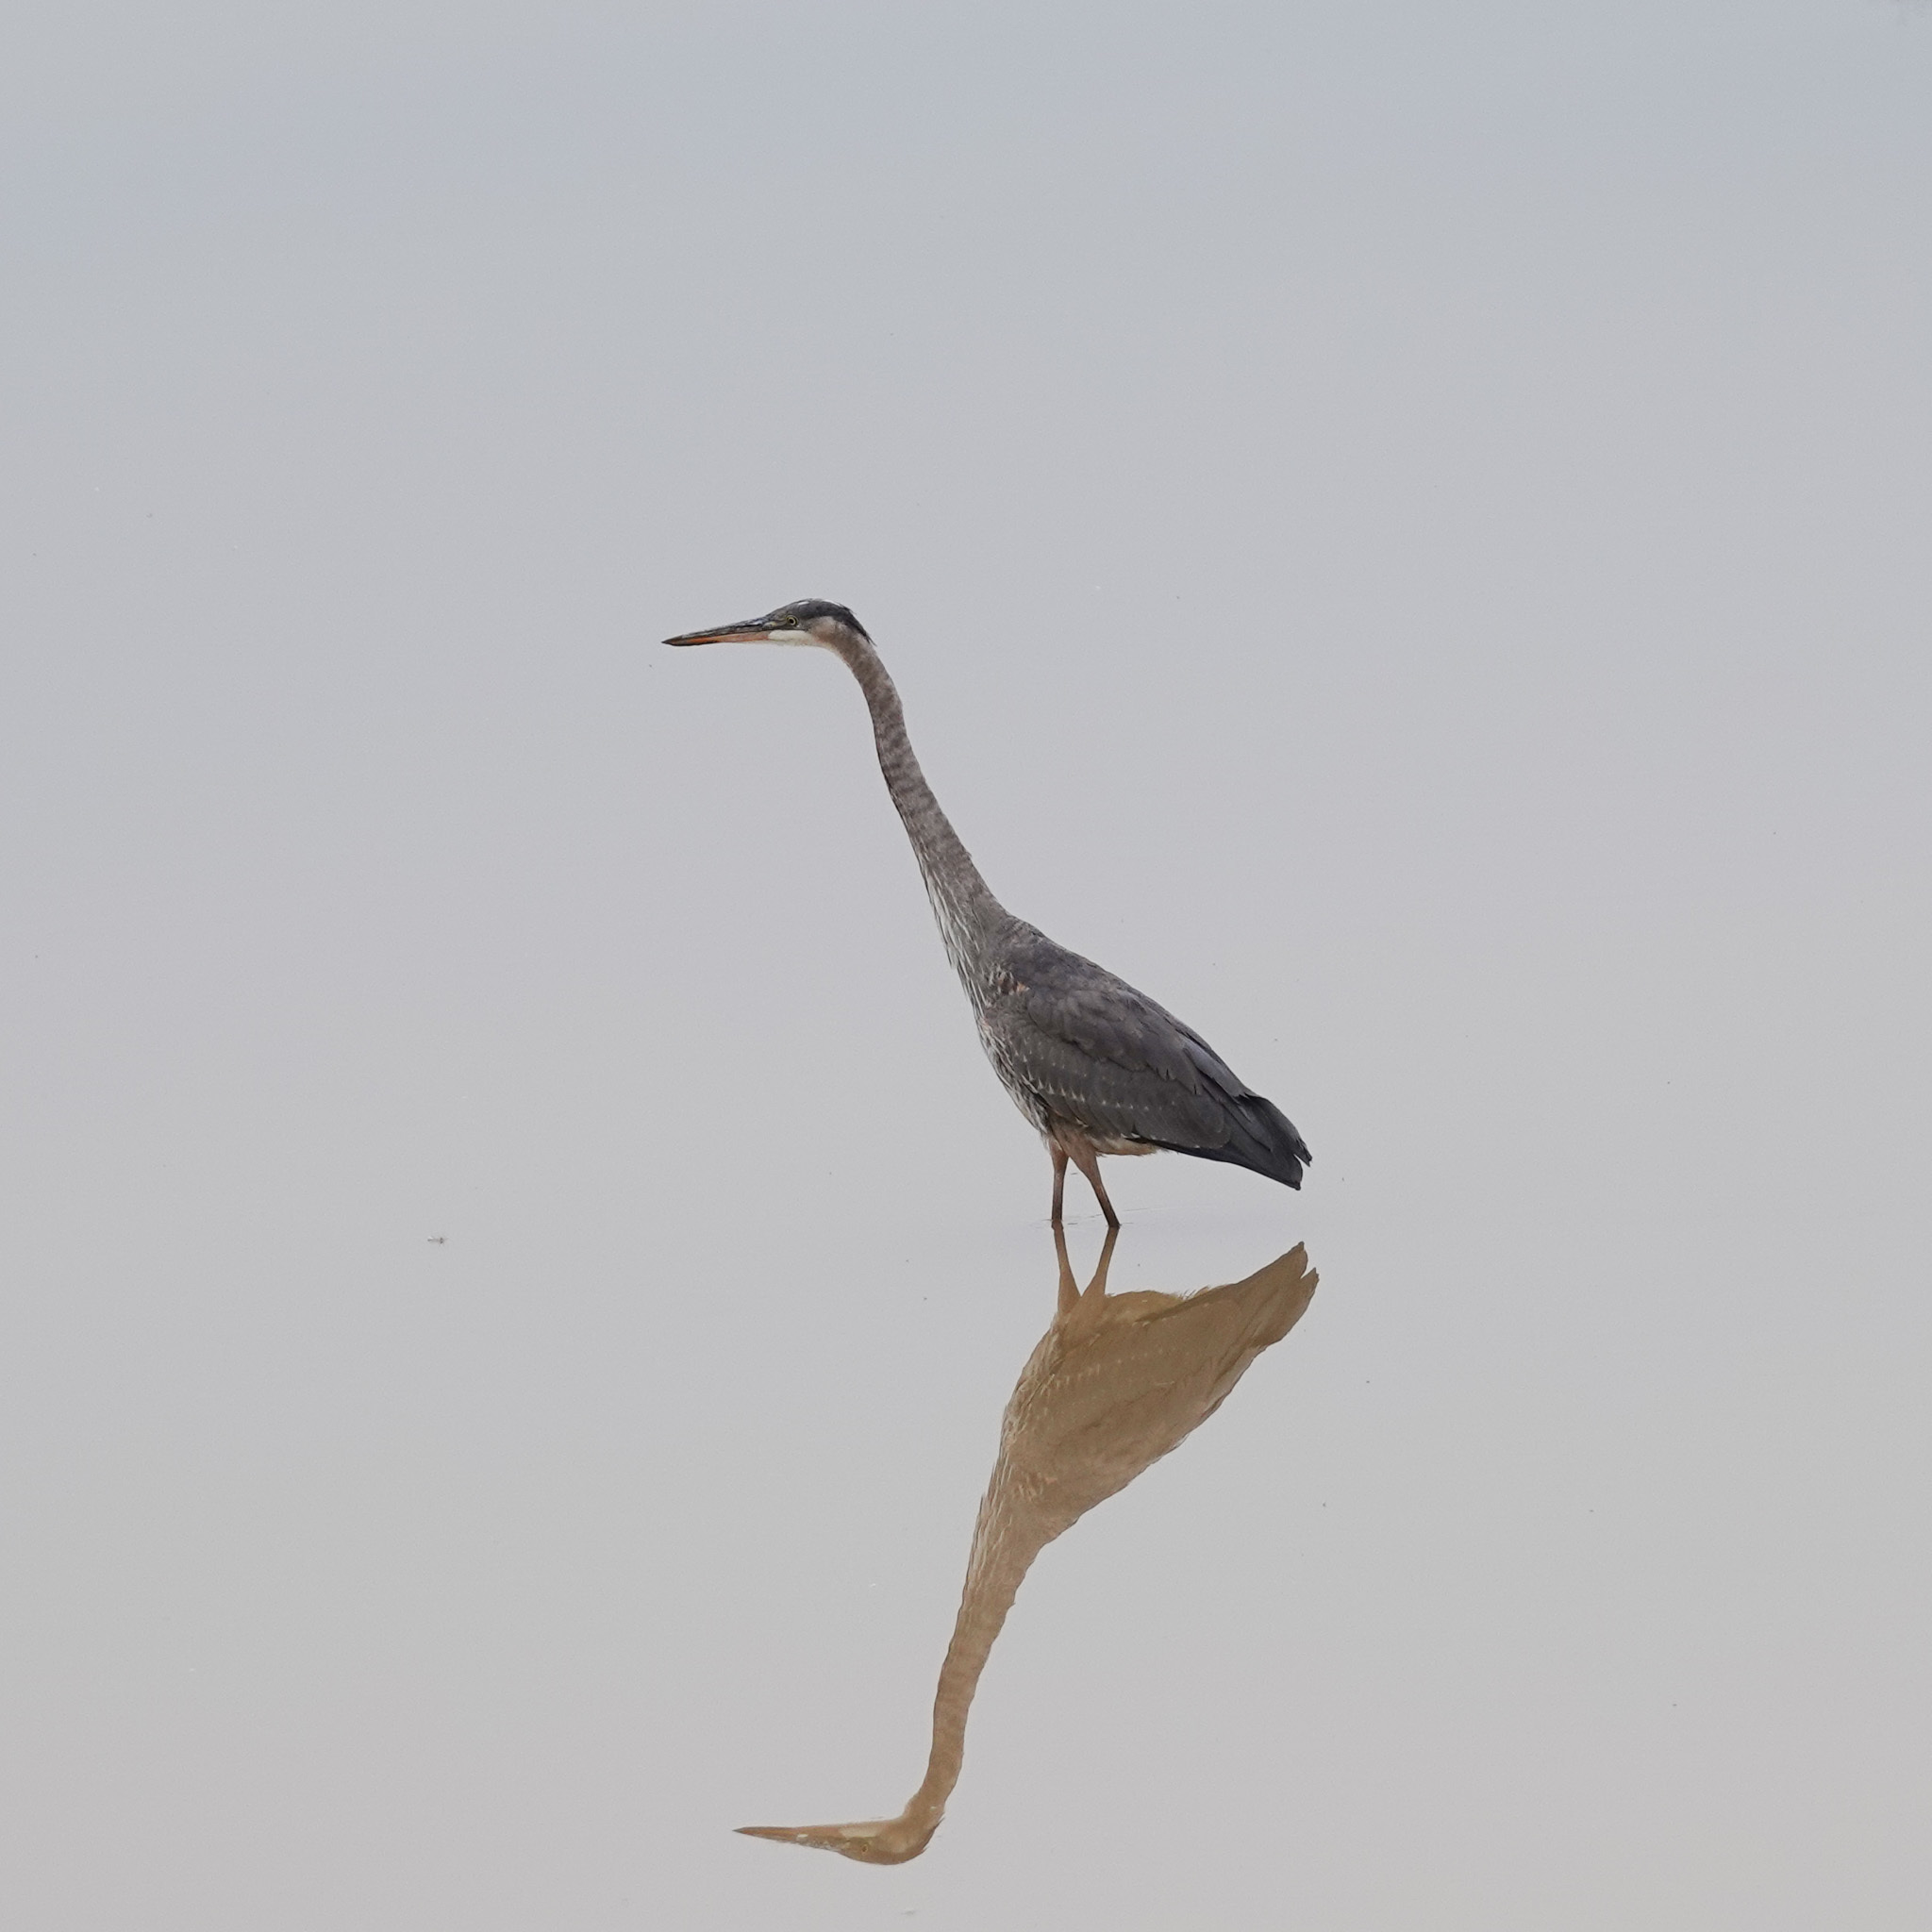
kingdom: Animalia
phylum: Chordata
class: Aves
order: Pelecaniformes
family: Ardeidae
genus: Ardea
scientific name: Ardea herodias
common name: Great blue heron
